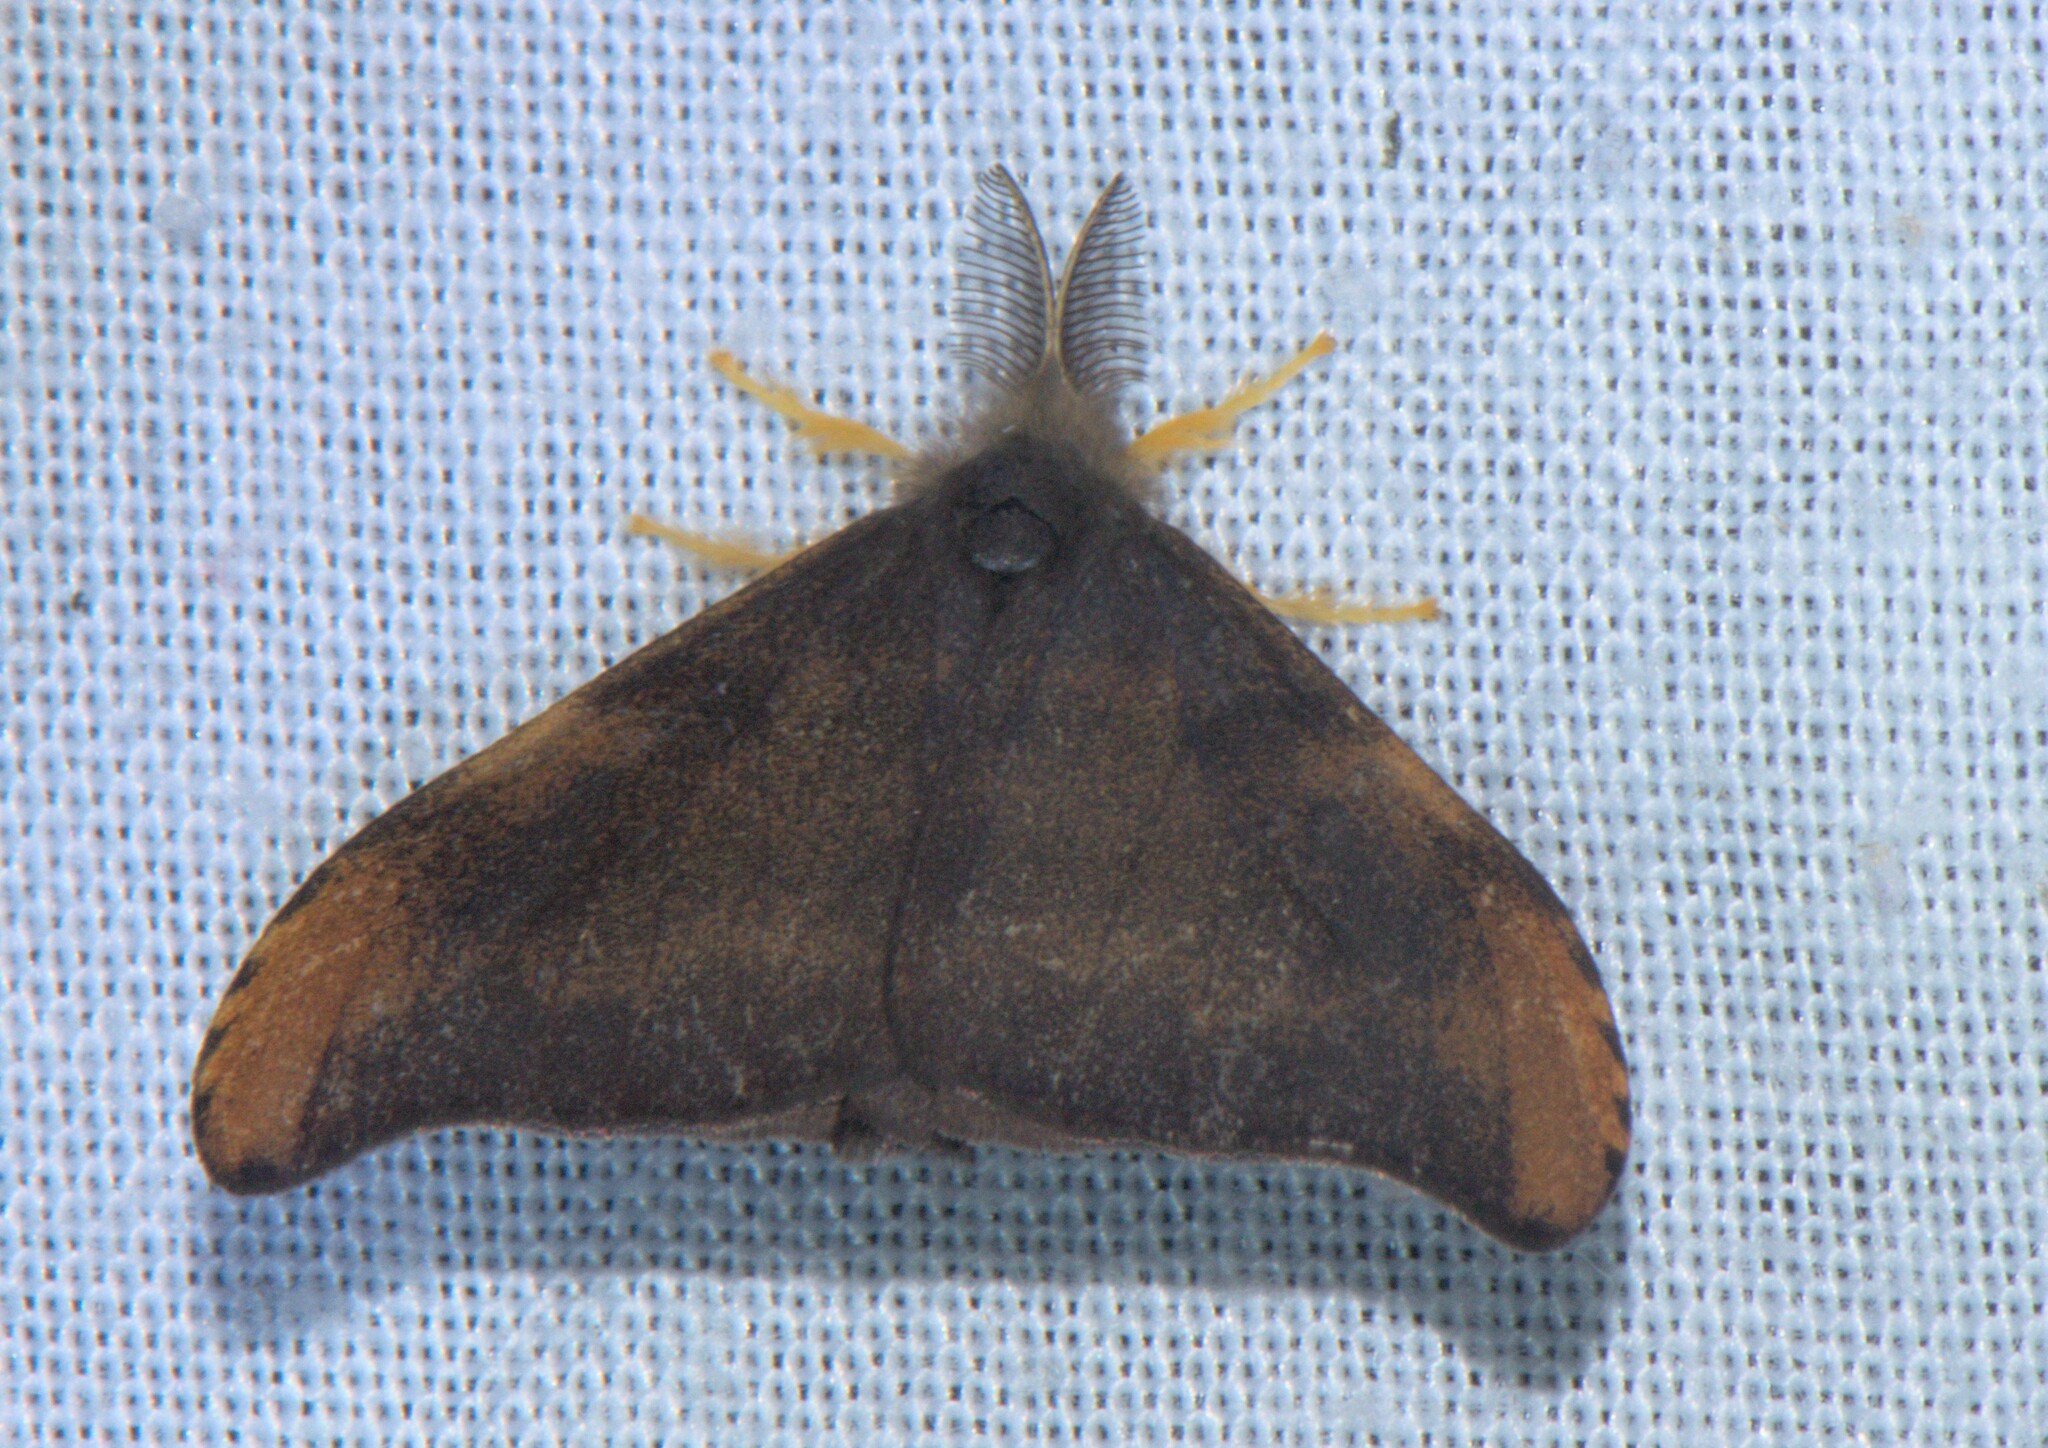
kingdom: Animalia
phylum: Arthropoda
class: Insecta
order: Lepidoptera
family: Erebidae
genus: Rhypotoses
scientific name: Rhypotoses
